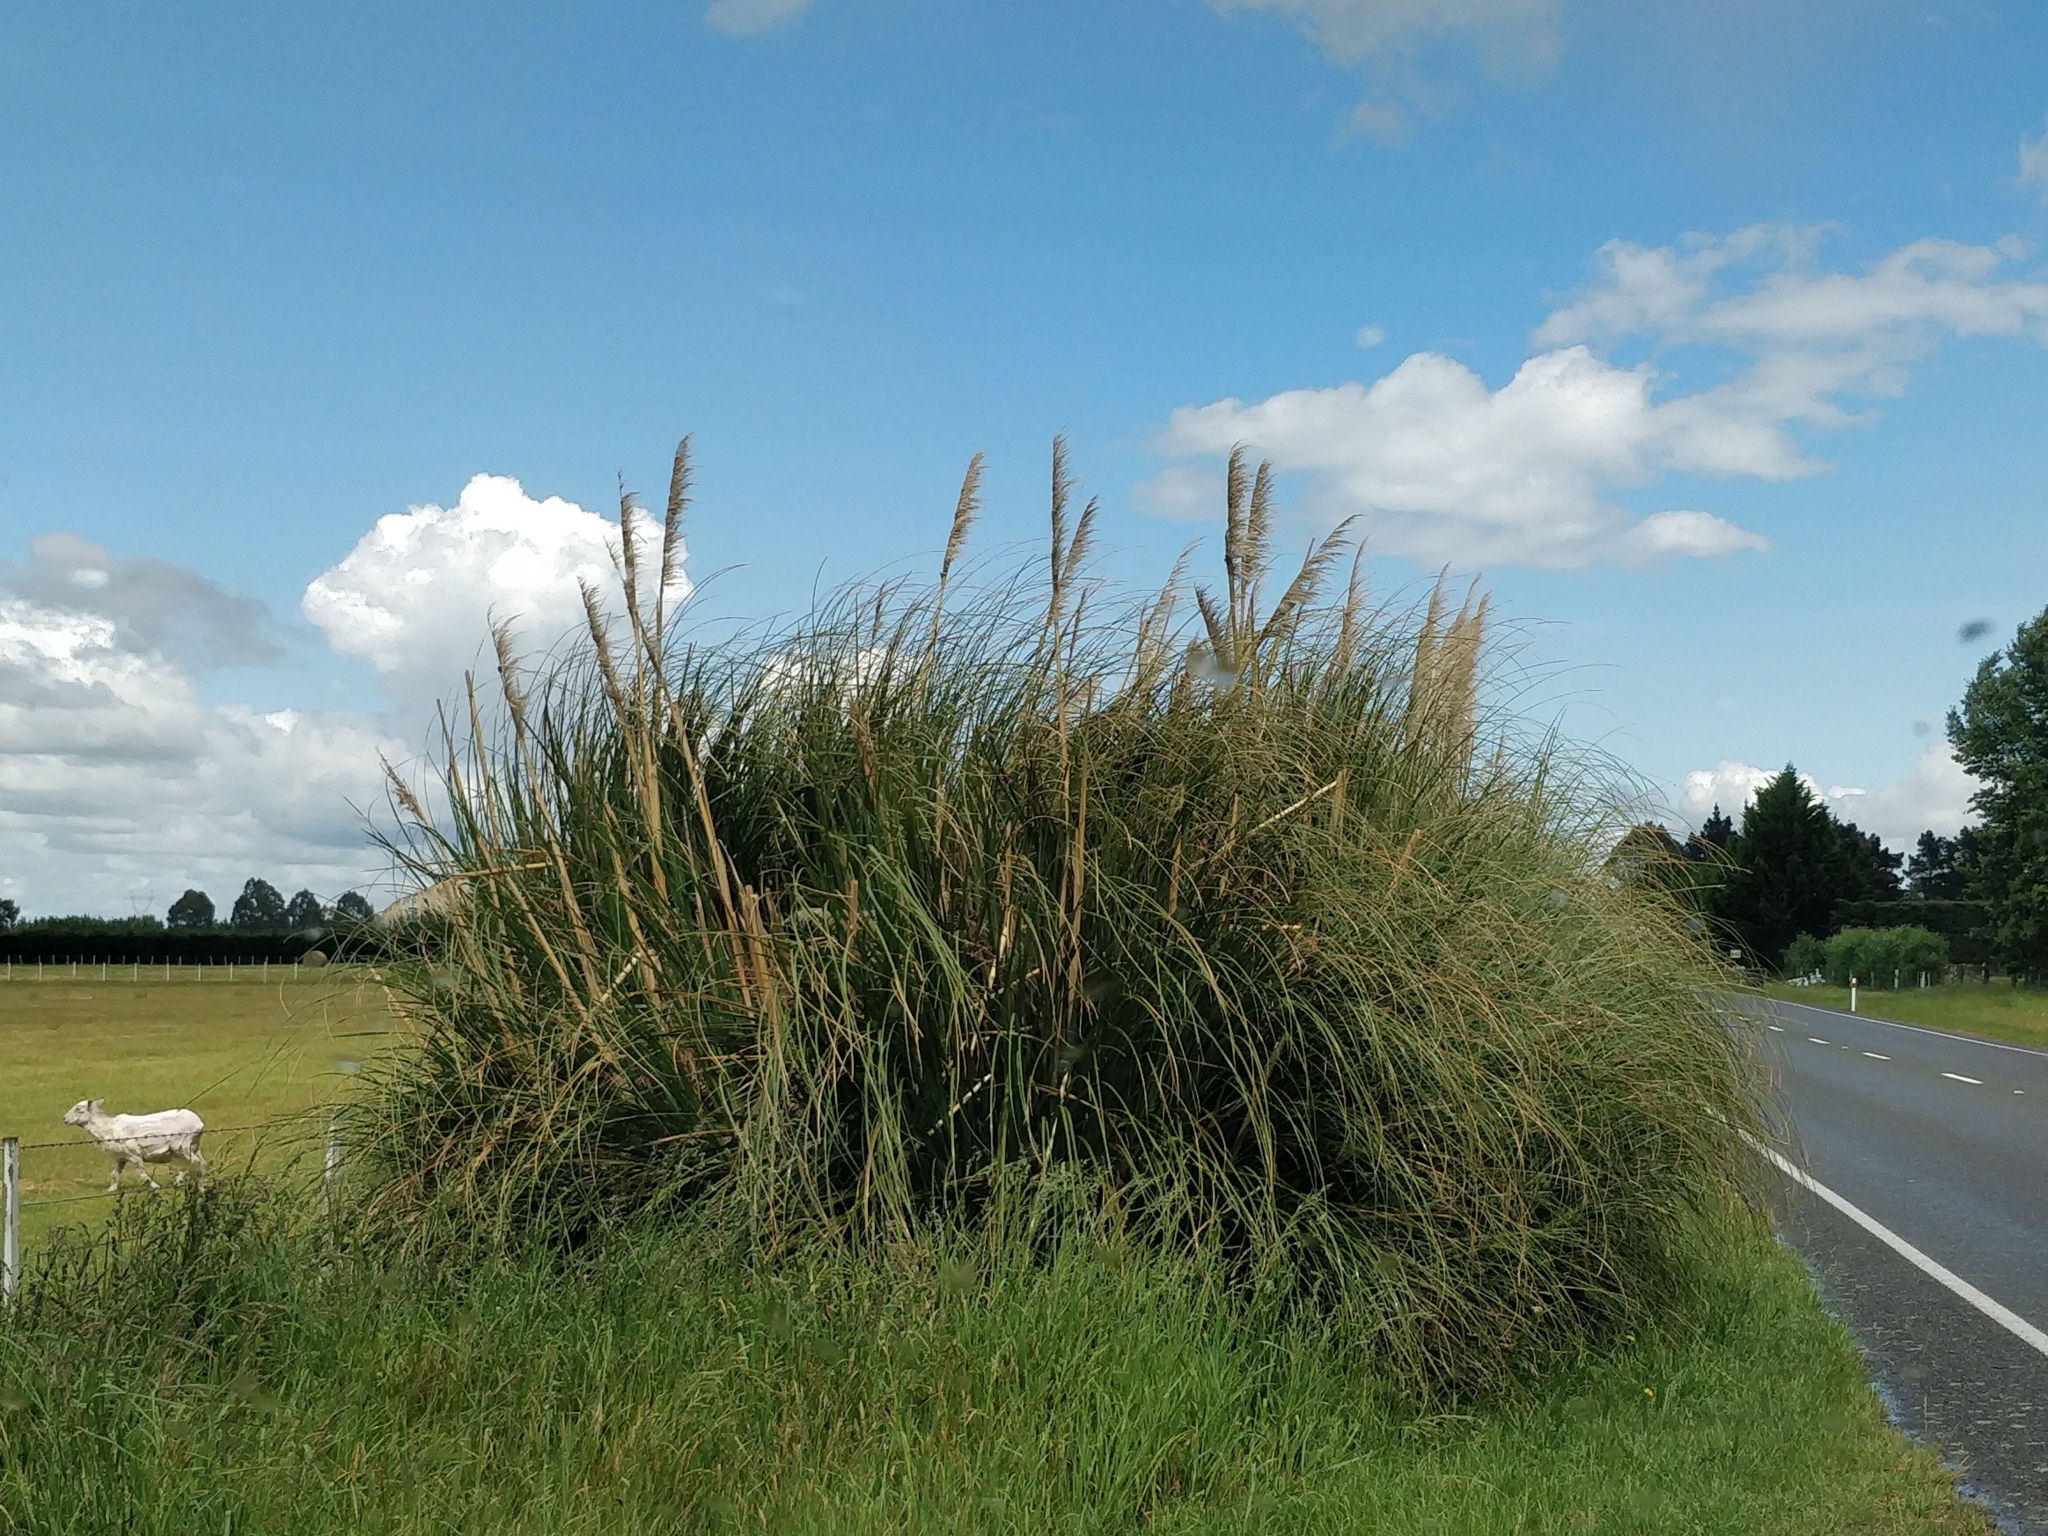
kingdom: Plantae
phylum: Tracheophyta
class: Liliopsida
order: Poales
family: Poaceae
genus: Cortaderia
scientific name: Cortaderia selloana
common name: Uruguayan pampas grass
